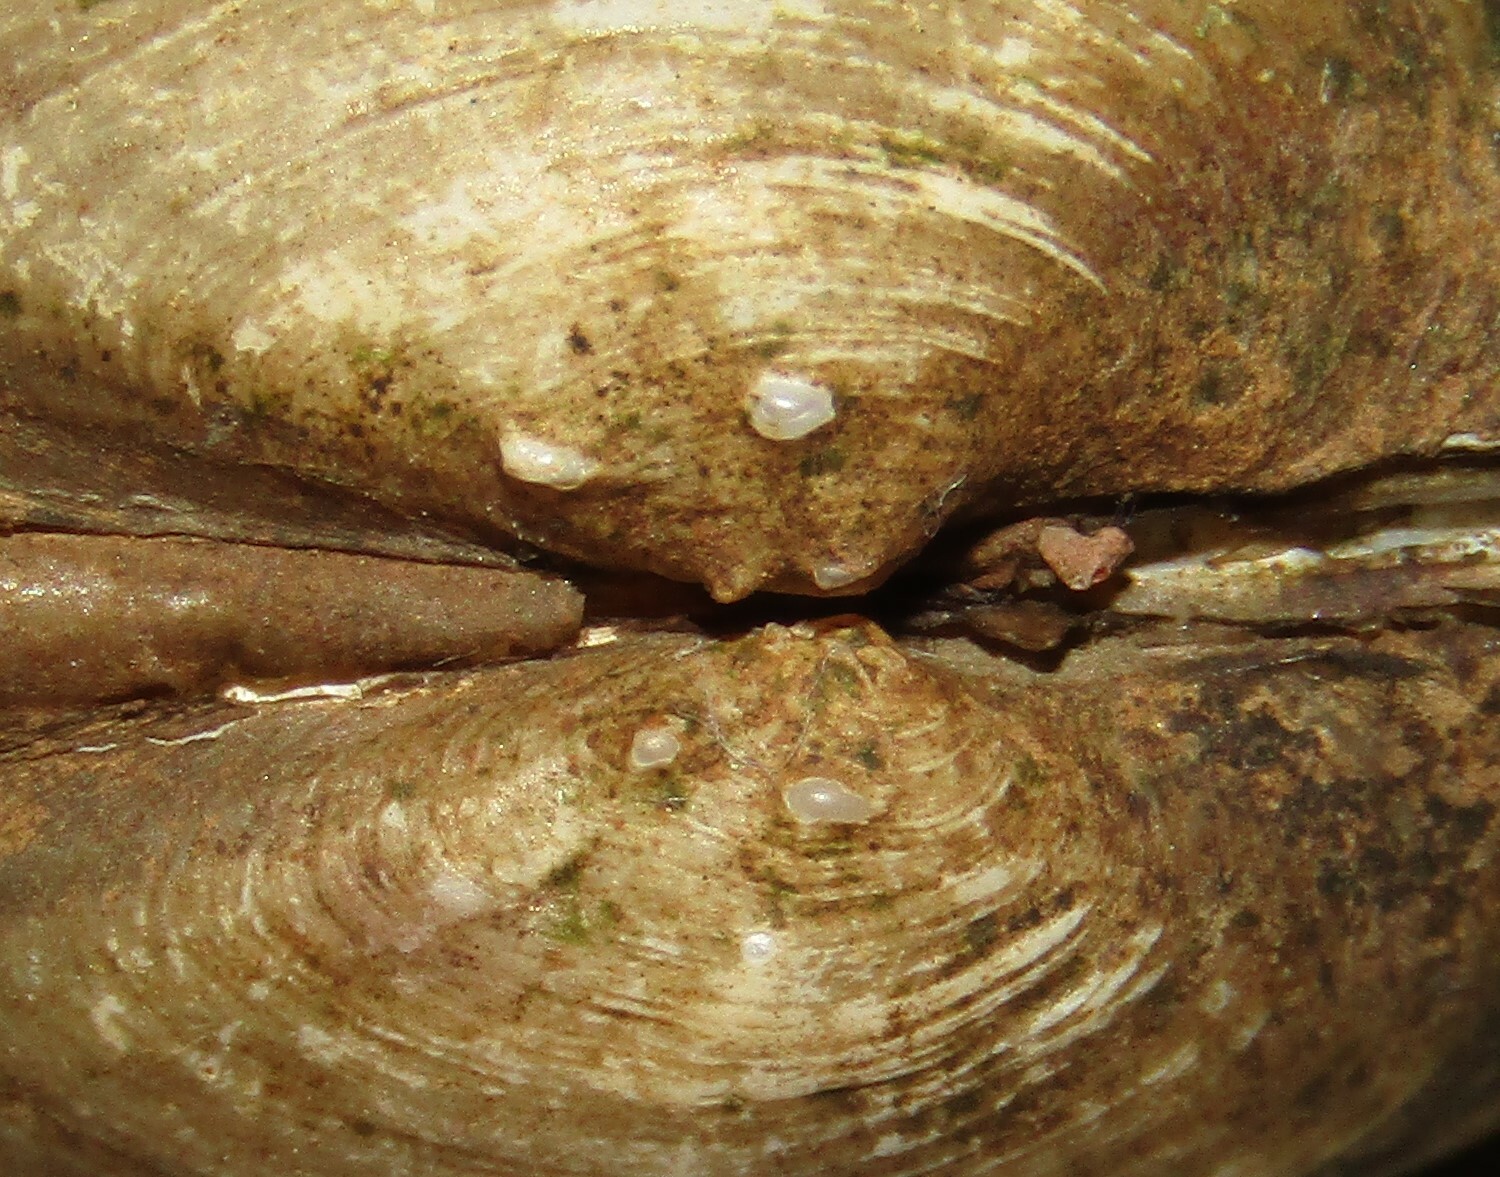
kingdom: Animalia
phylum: Mollusca
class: Bivalvia
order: Unionida
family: Unionidae
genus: Unio
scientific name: Unio pictorum
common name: Painter's mussel
